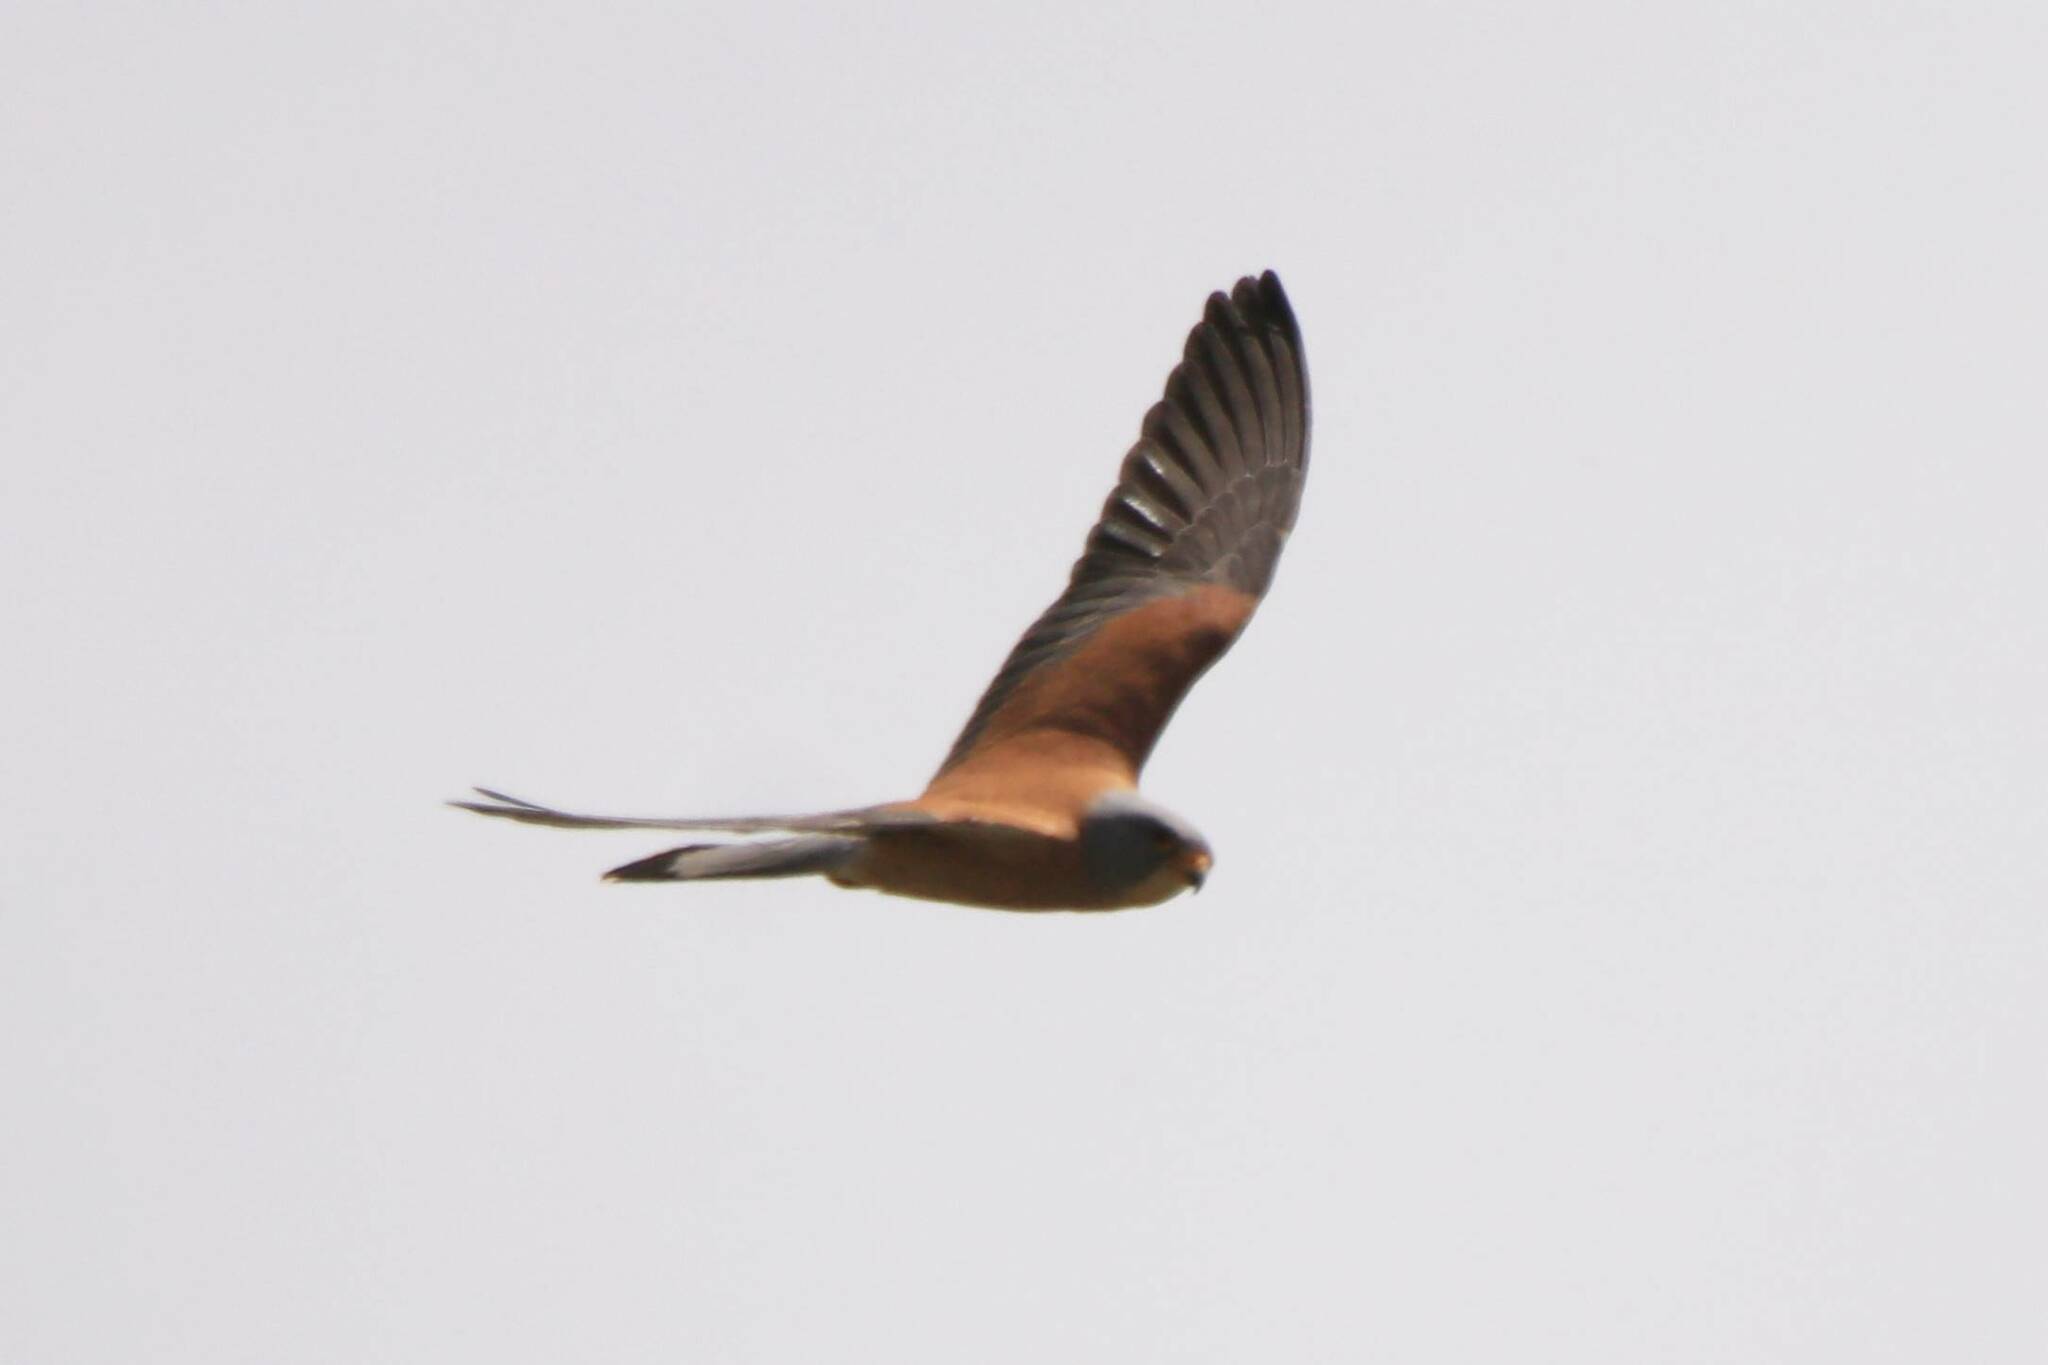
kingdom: Animalia
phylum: Chordata
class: Aves
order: Falconiformes
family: Falconidae
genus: Falco
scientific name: Falco naumanni
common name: Lesser kestrel
